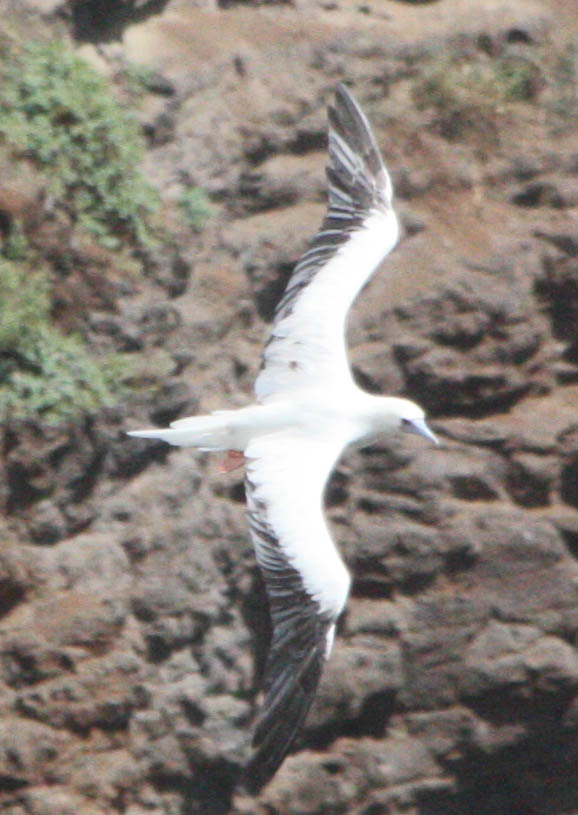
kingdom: Animalia
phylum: Chordata
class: Aves
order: Suliformes
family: Sulidae
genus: Sula
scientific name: Sula sula
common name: Red-footed booby
